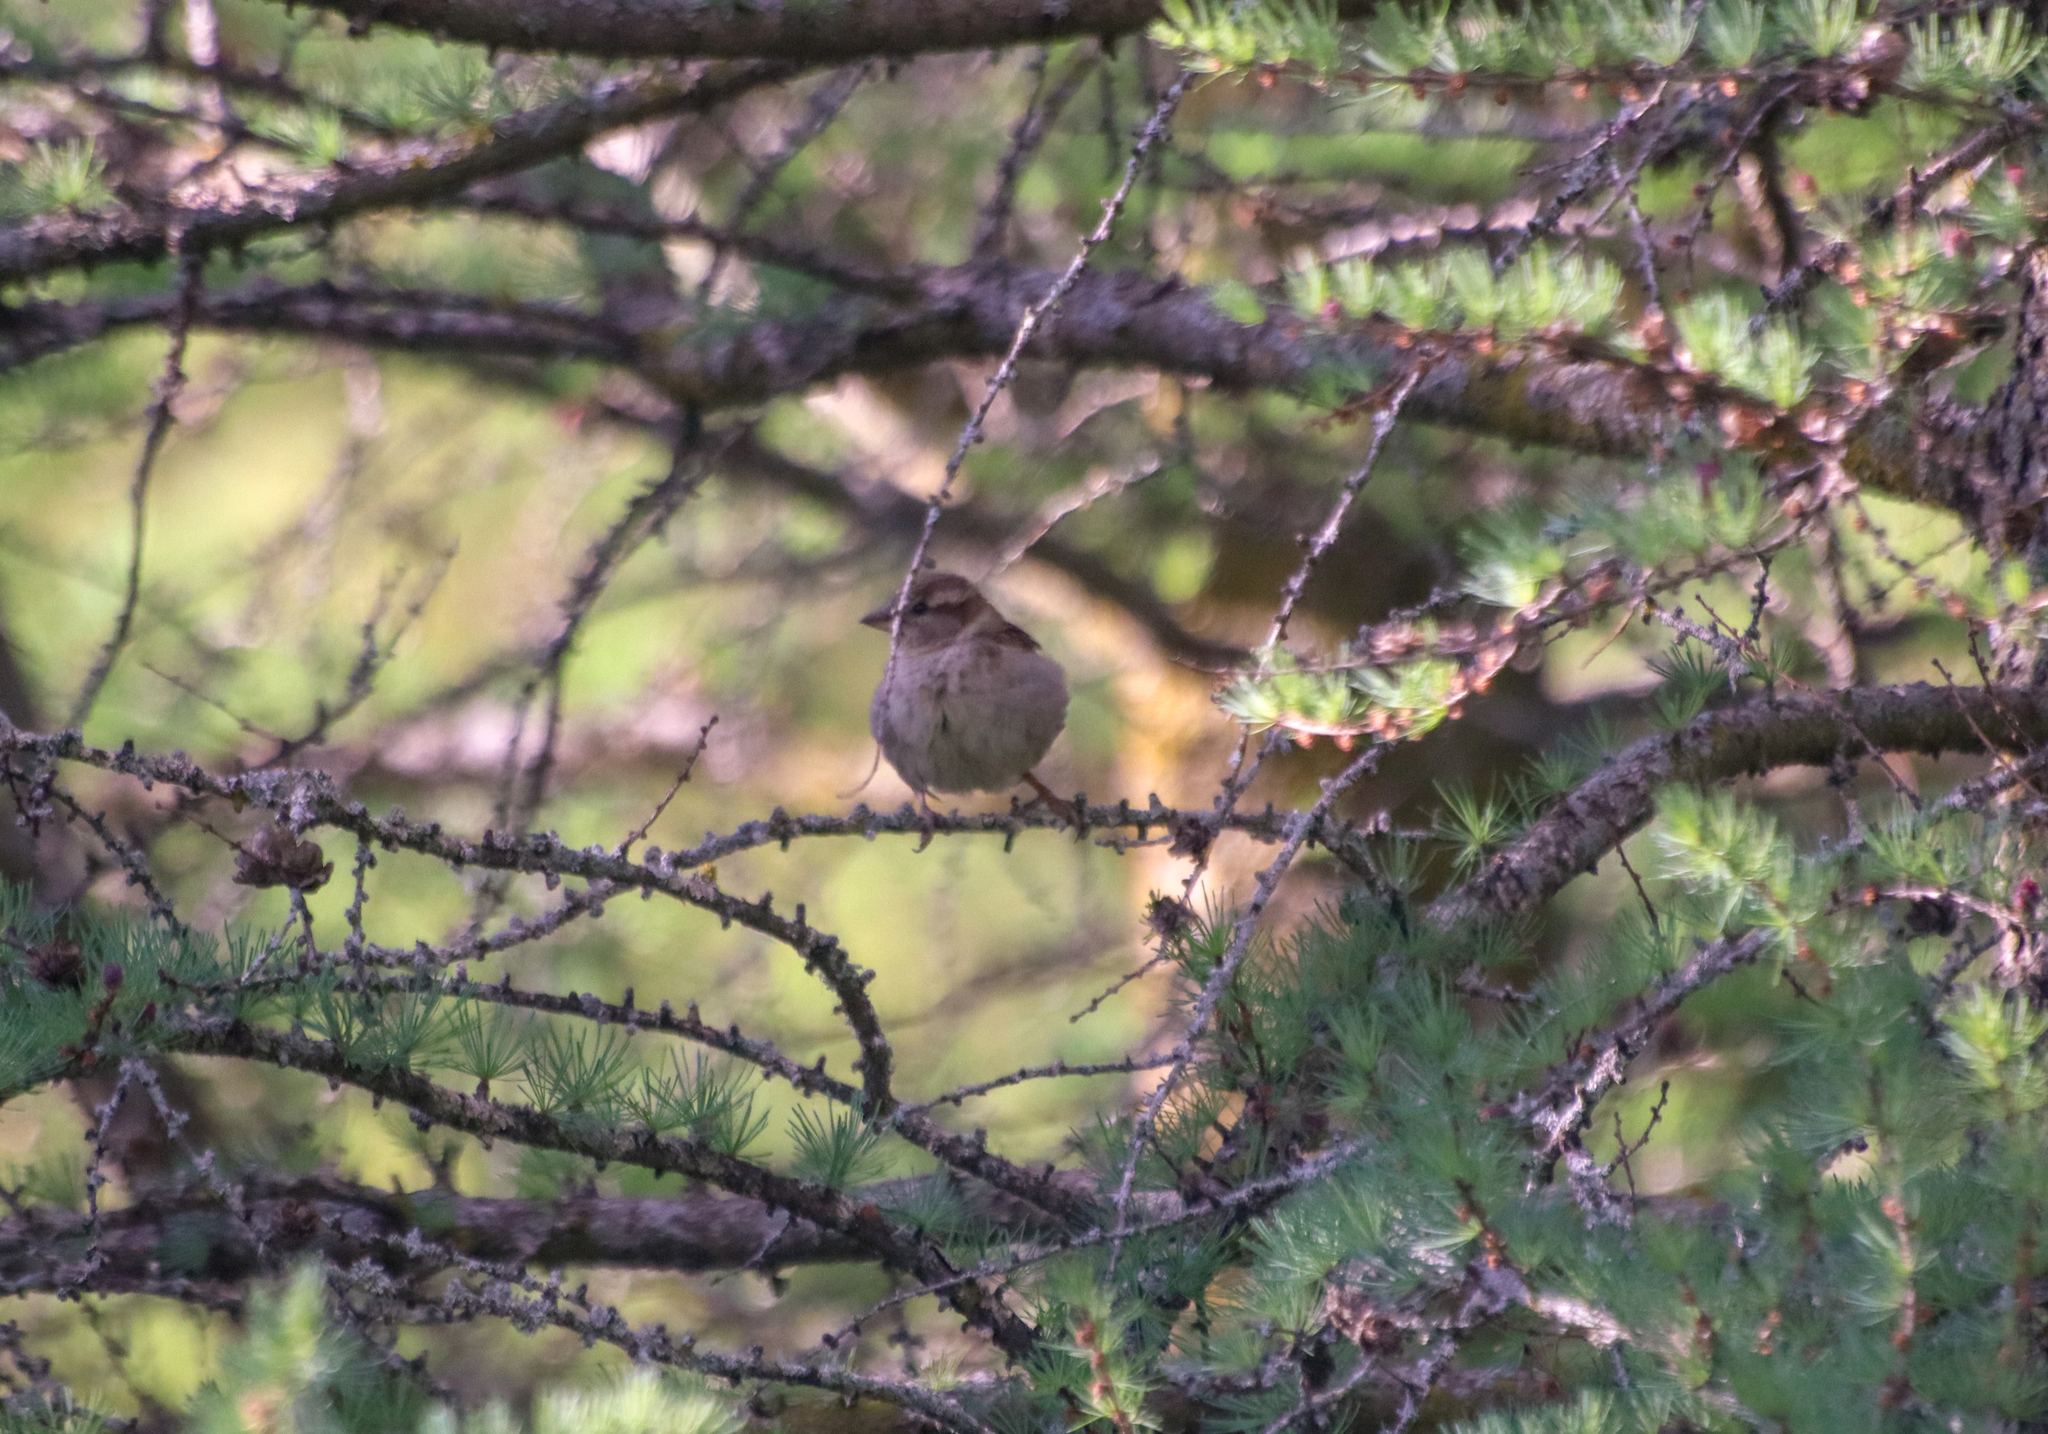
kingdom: Animalia
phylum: Chordata
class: Aves
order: Passeriformes
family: Passeridae
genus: Passer
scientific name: Passer domesticus
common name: House sparrow
